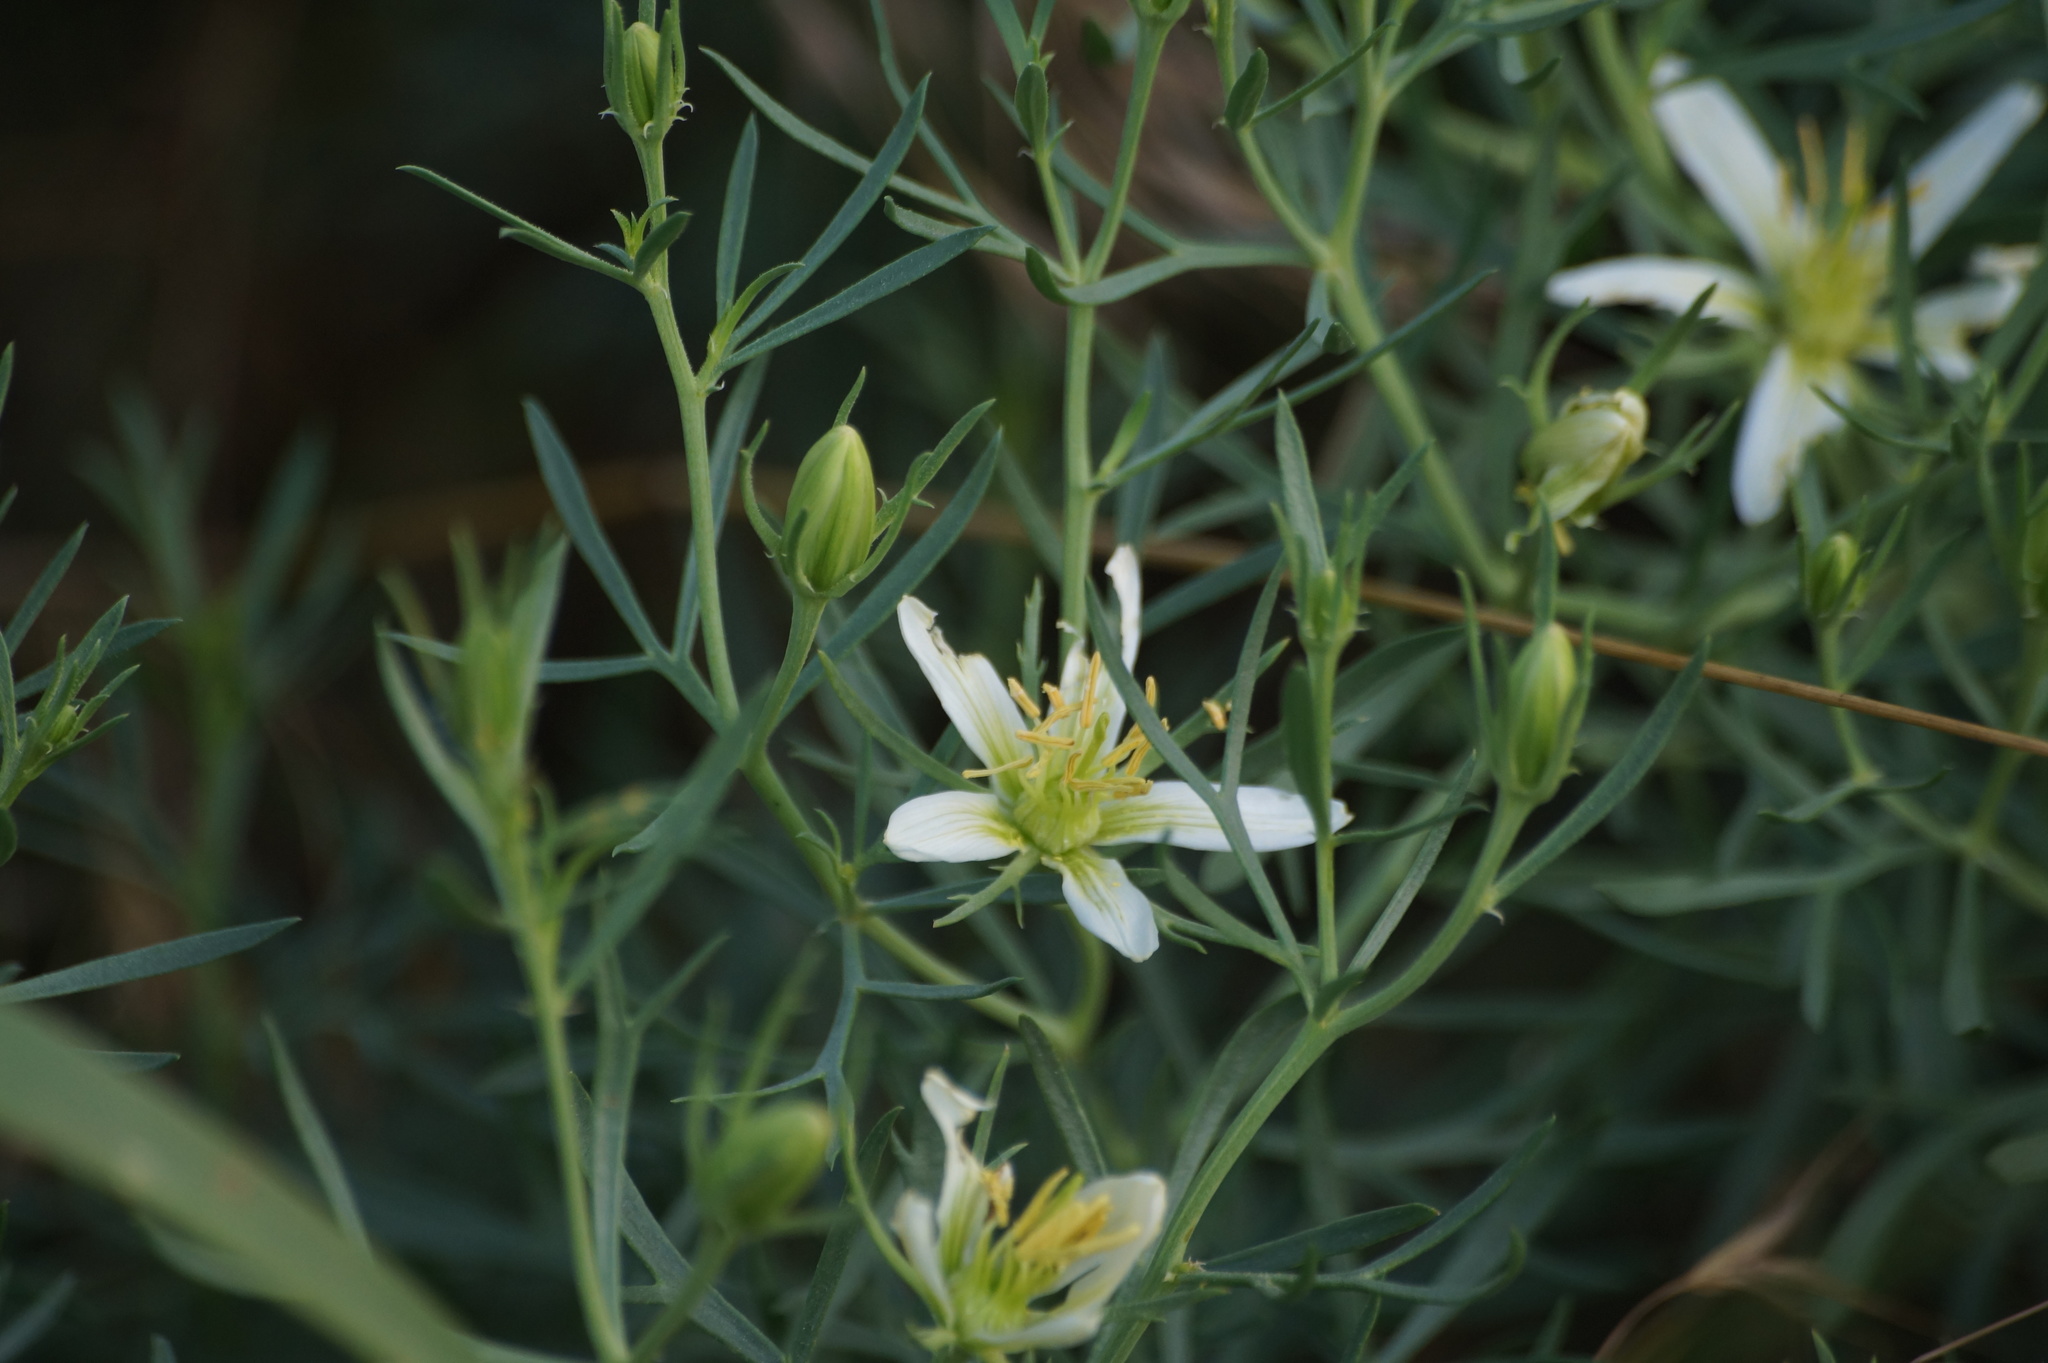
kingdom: Plantae
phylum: Tracheophyta
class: Magnoliopsida
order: Sapindales
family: Tetradiclidaceae
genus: Peganum
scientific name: Peganum harmala
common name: Harmal peganum
